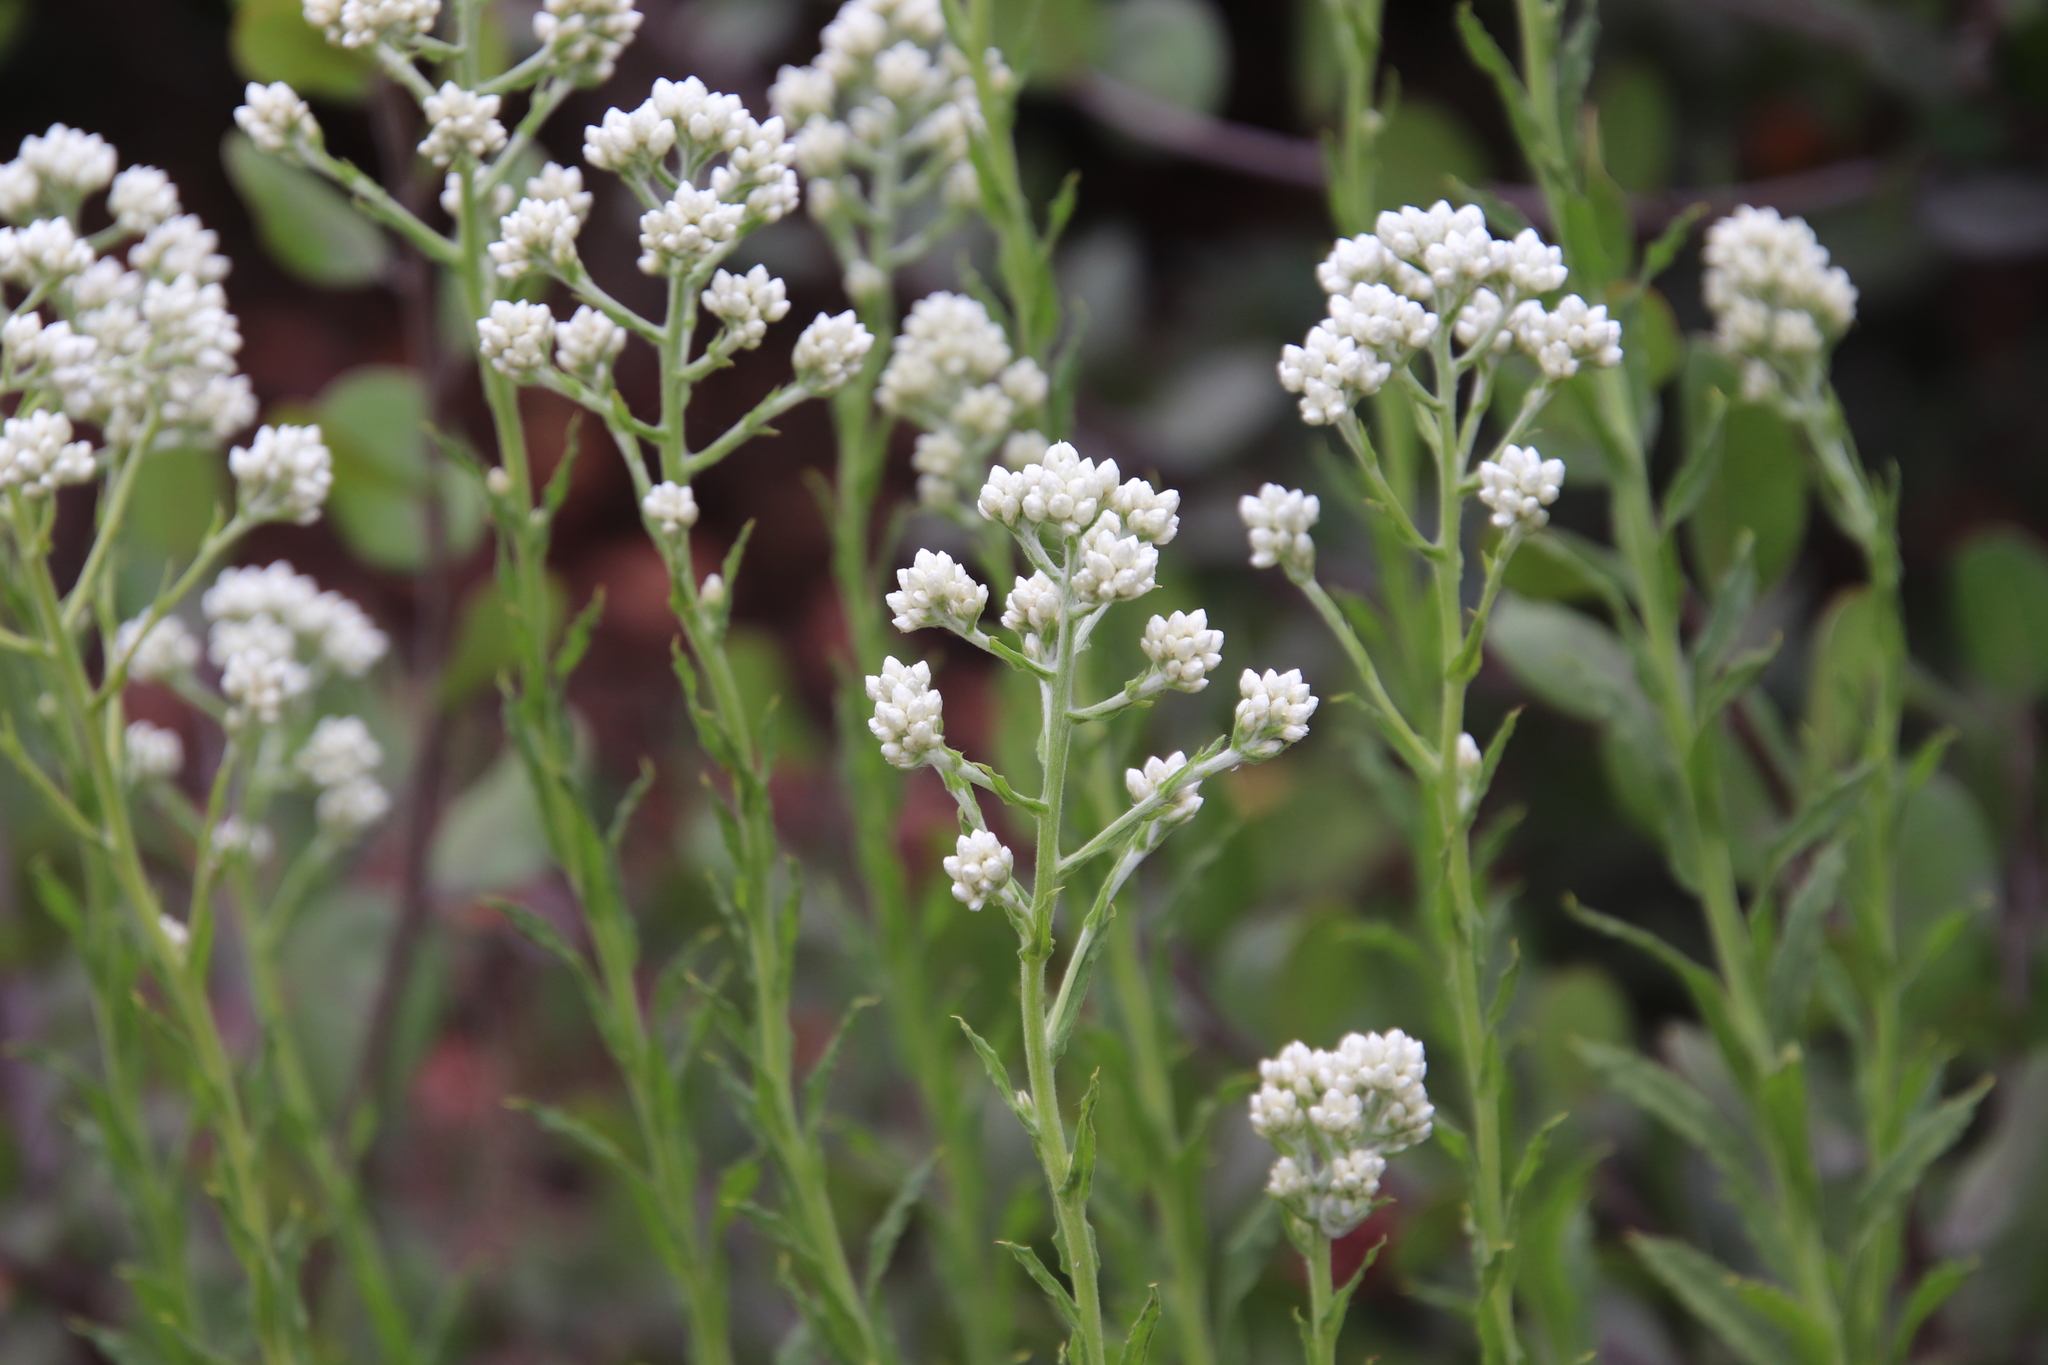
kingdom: Plantae
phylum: Tracheophyta
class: Magnoliopsida
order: Asterales
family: Asteraceae
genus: Pseudognaphalium
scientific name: Pseudognaphalium californicum
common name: California rabbit-tobacco
